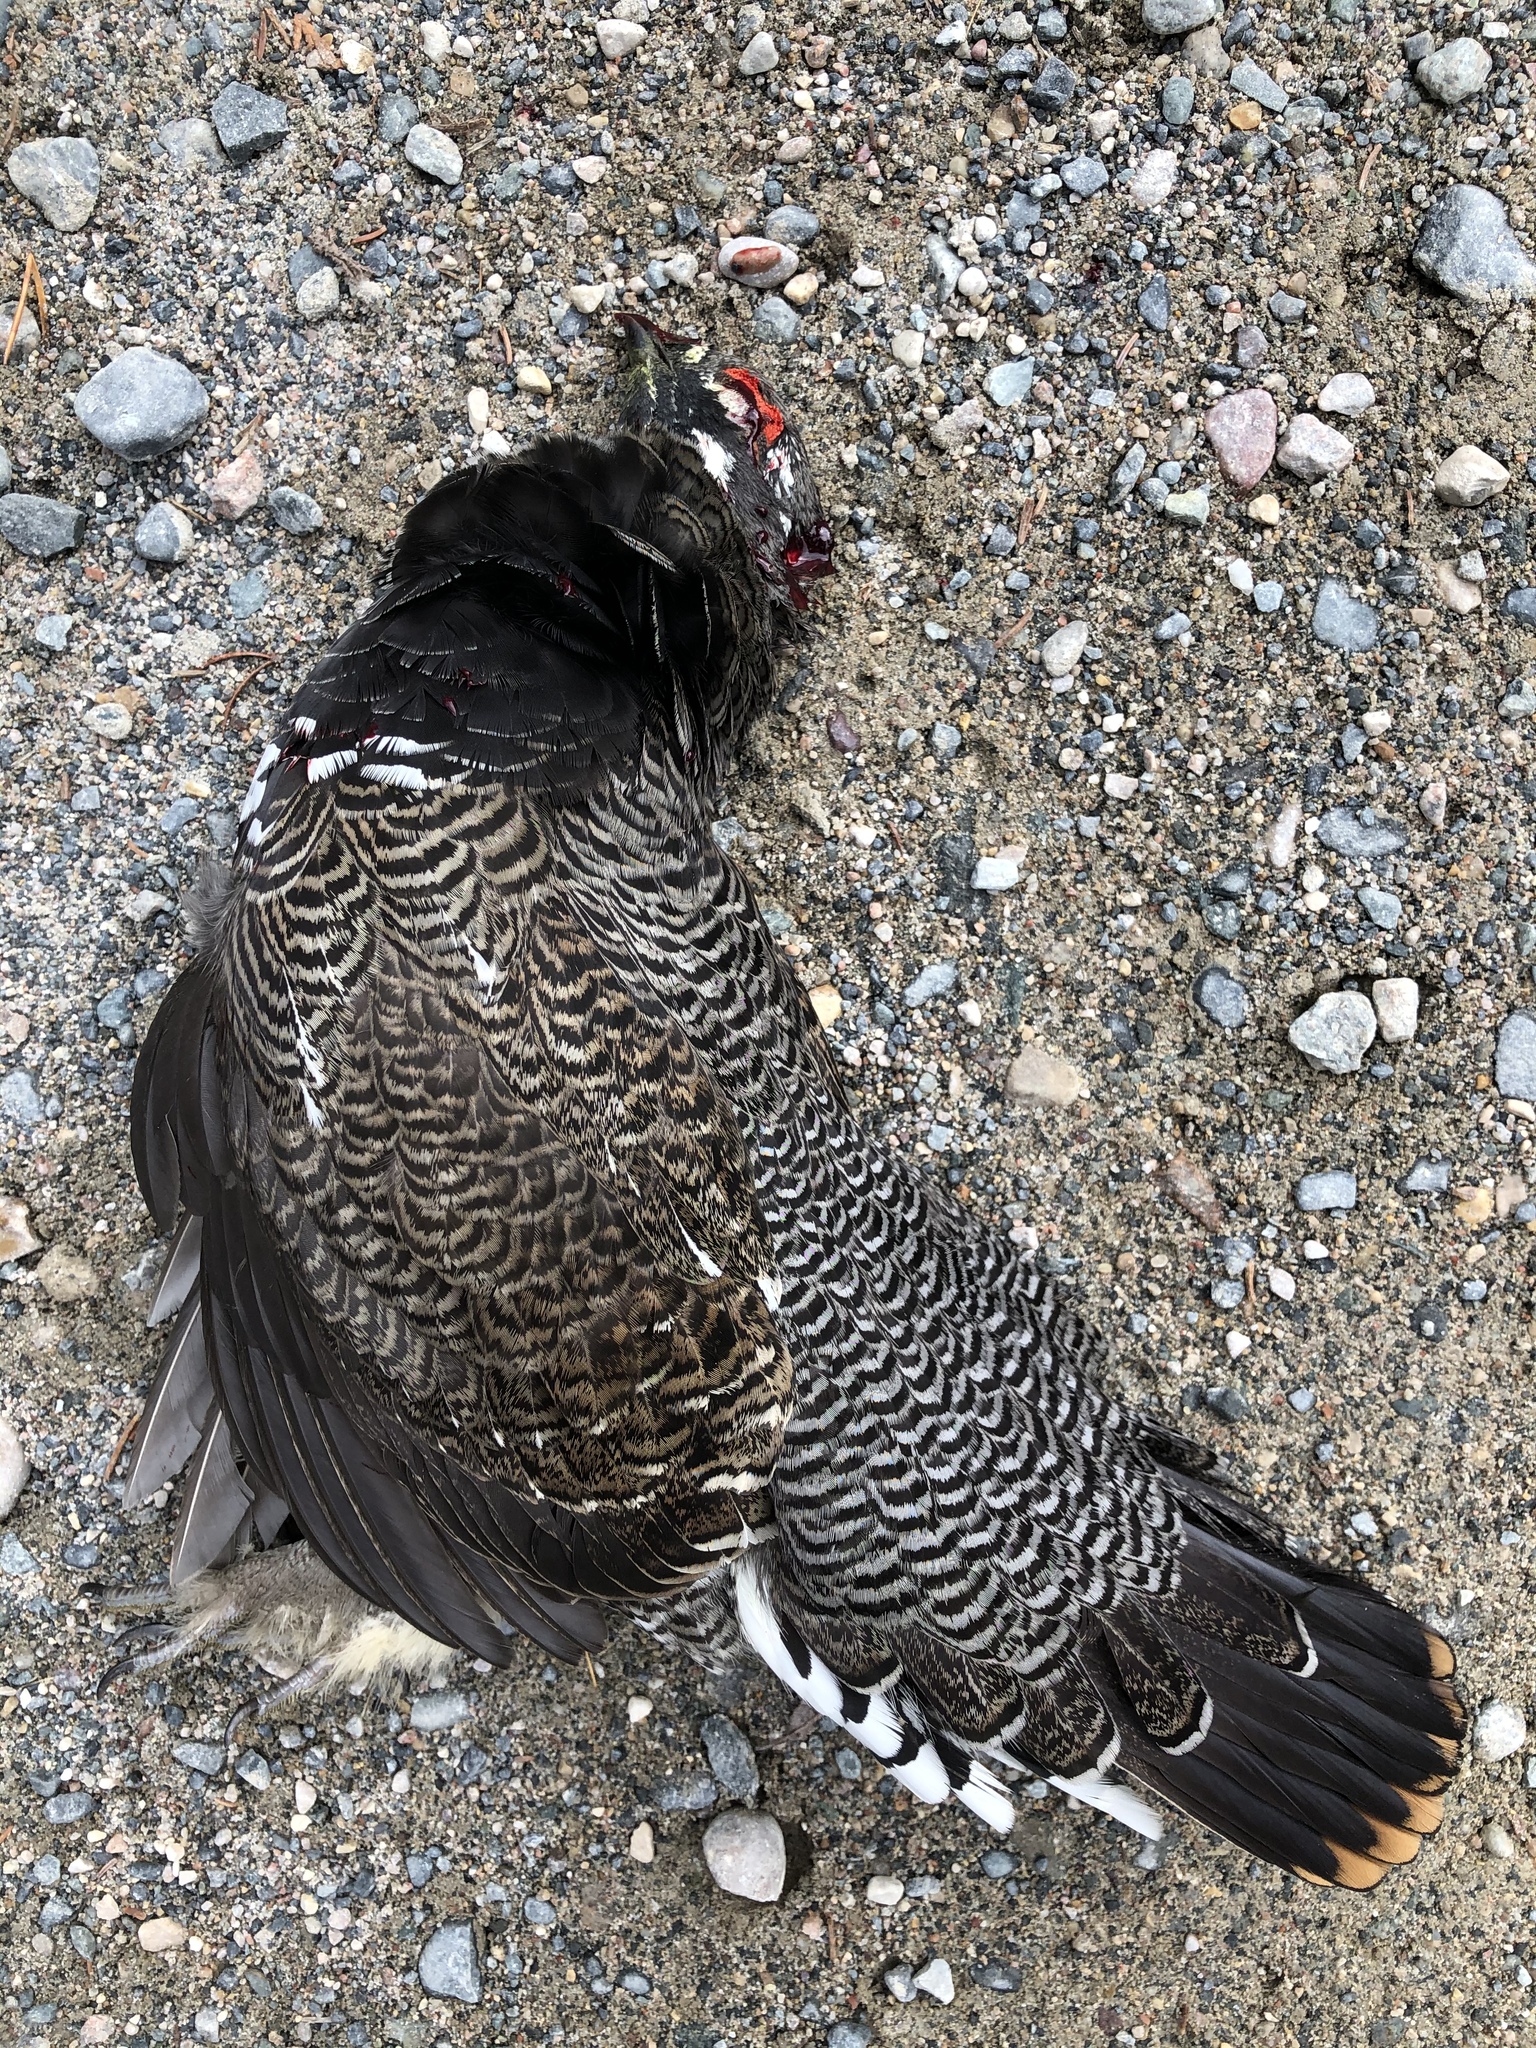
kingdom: Animalia
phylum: Chordata
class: Aves
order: Galliformes
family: Phasianidae
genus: Canachites
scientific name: Canachites canadensis
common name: Spruce grouse
